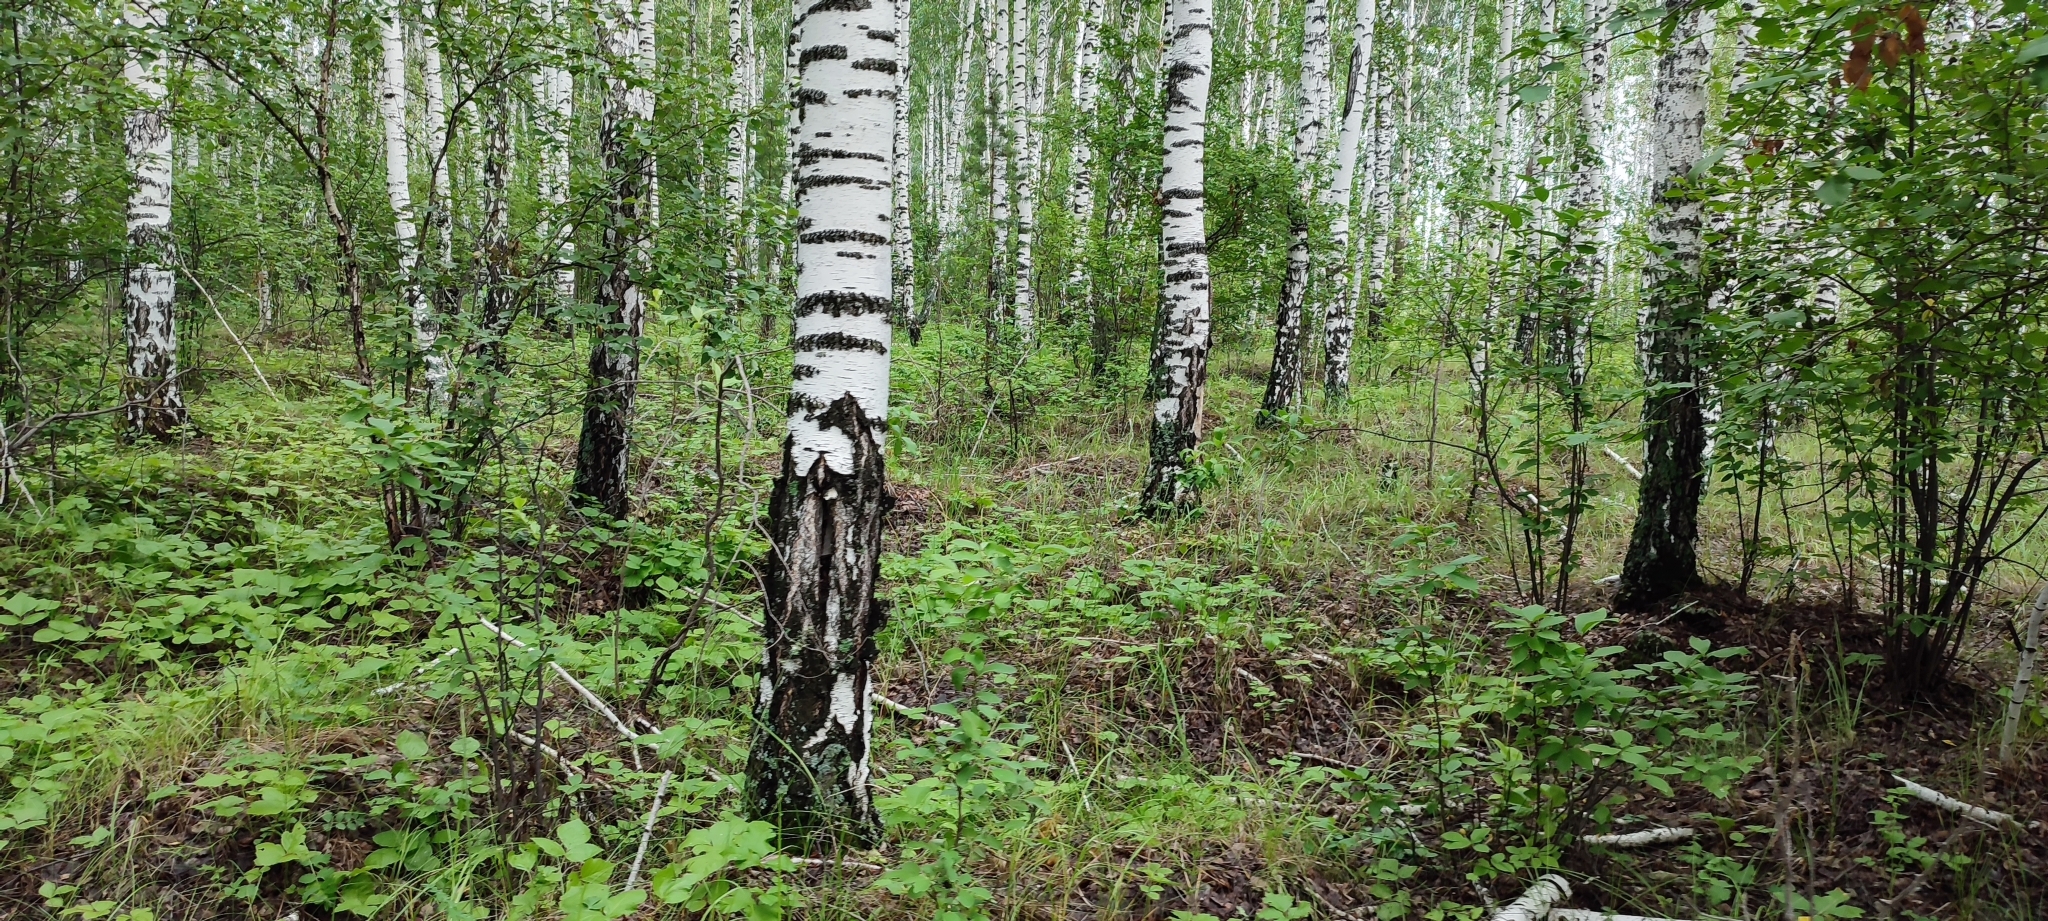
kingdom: Plantae
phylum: Tracheophyta
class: Magnoliopsida
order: Fagales
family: Betulaceae
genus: Betula
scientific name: Betula pendula
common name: Silver birch
